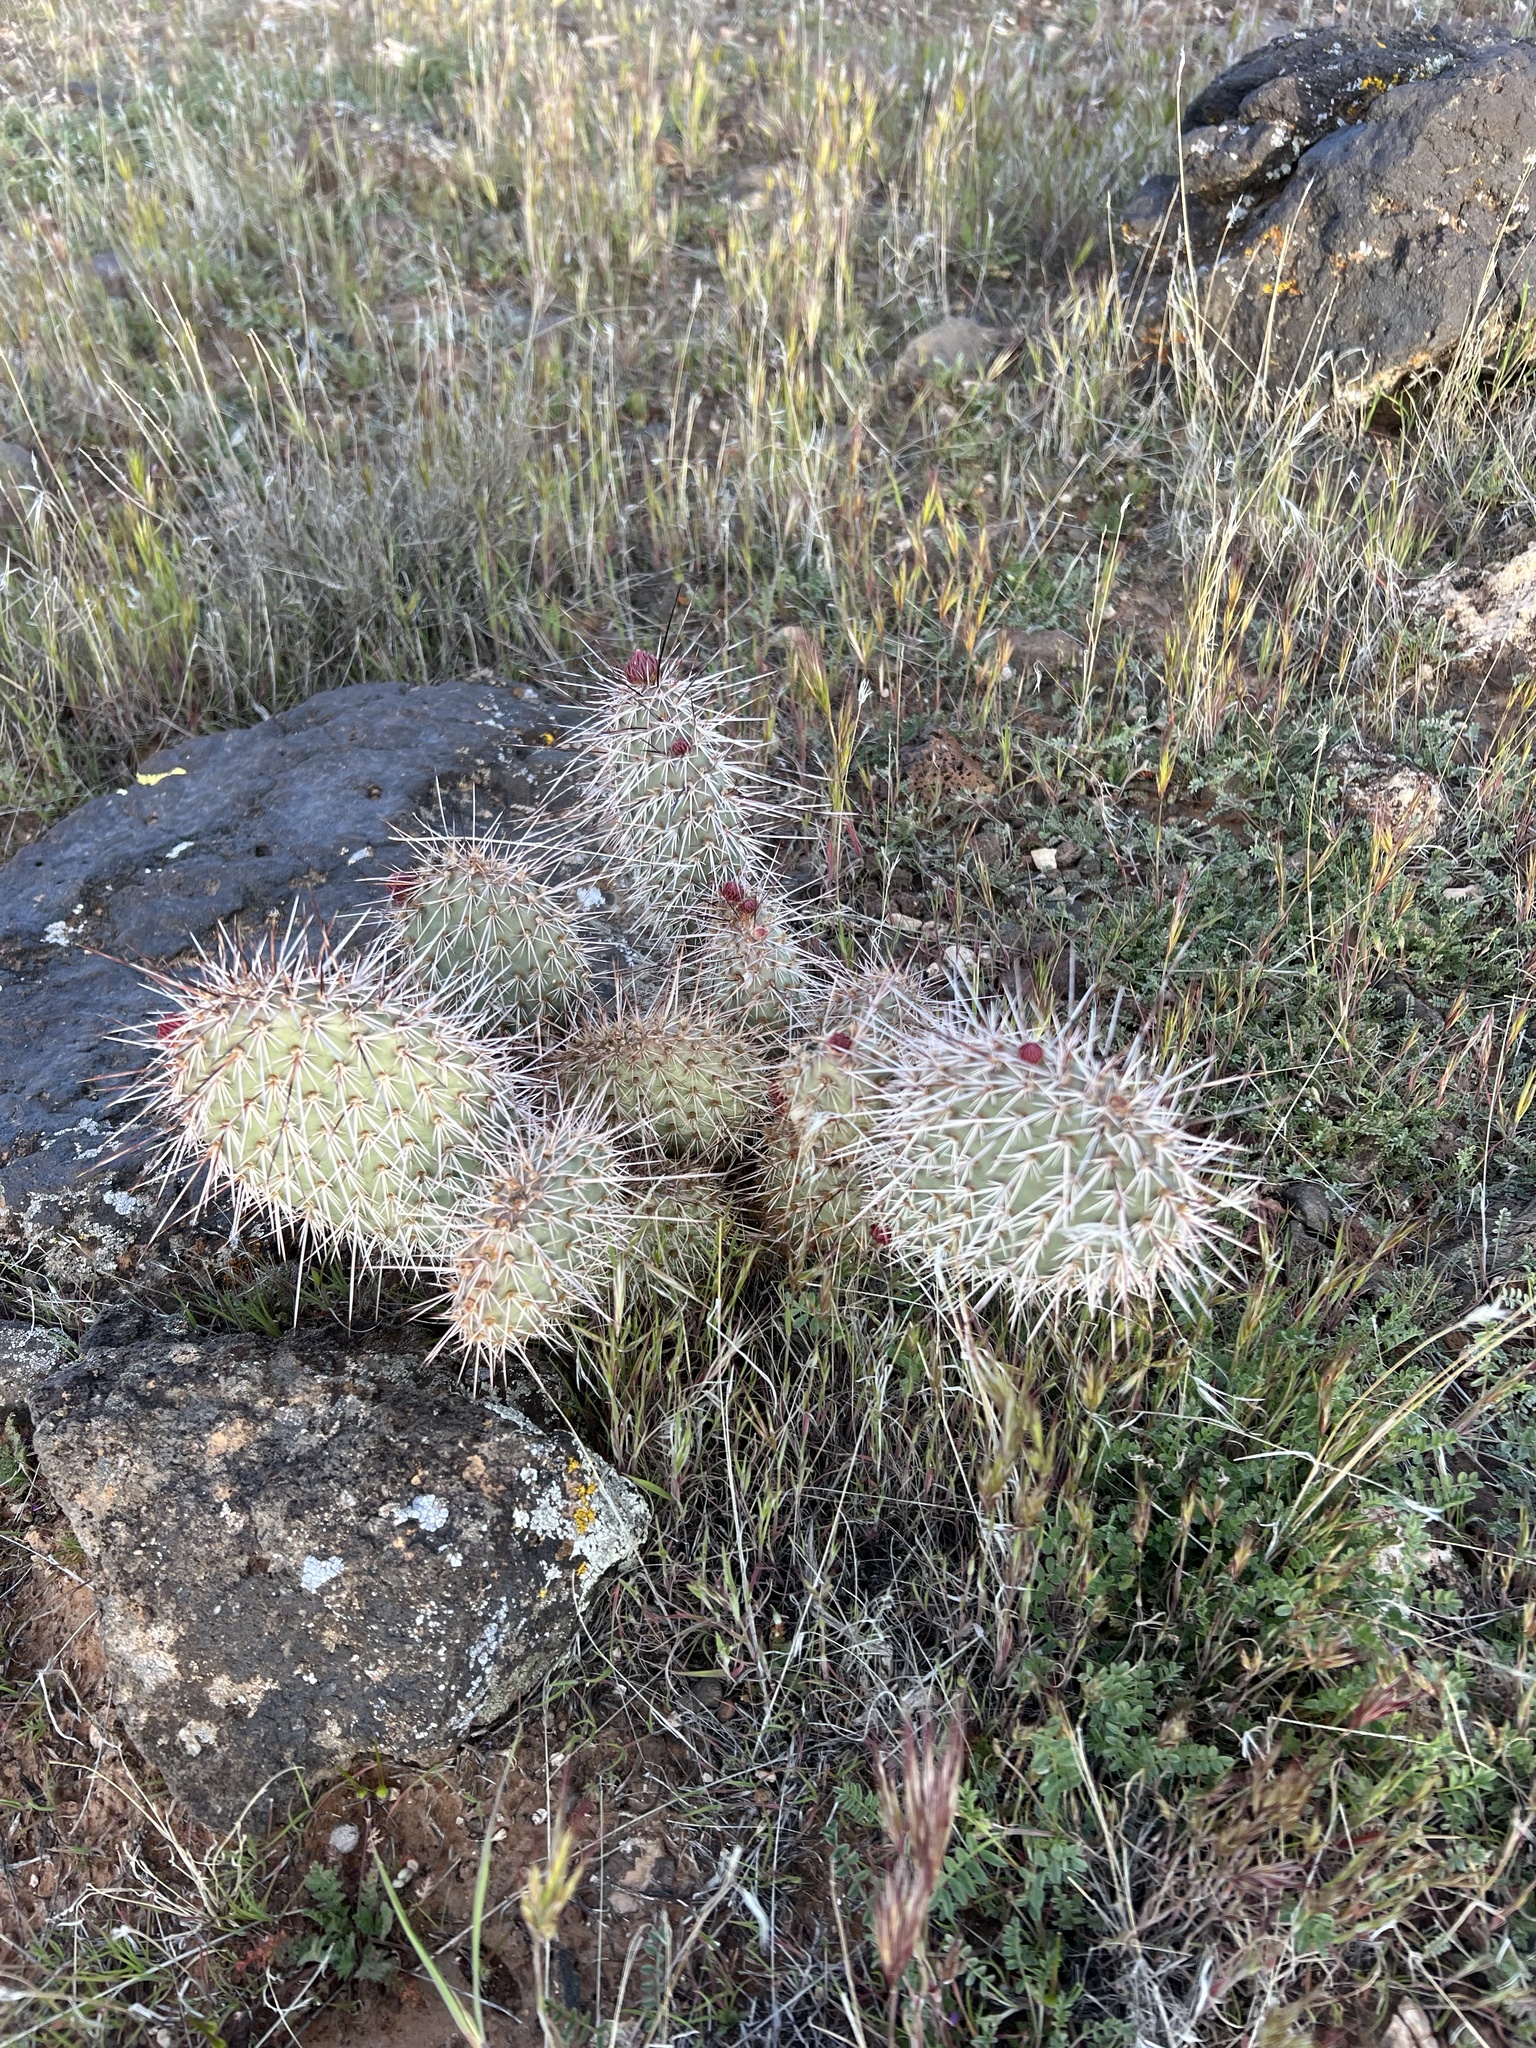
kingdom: Plantae
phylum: Tracheophyta
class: Magnoliopsida
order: Caryophyllales
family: Cactaceae
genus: Opuntia
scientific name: Opuntia polyacantha
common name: Plains prickly-pear
